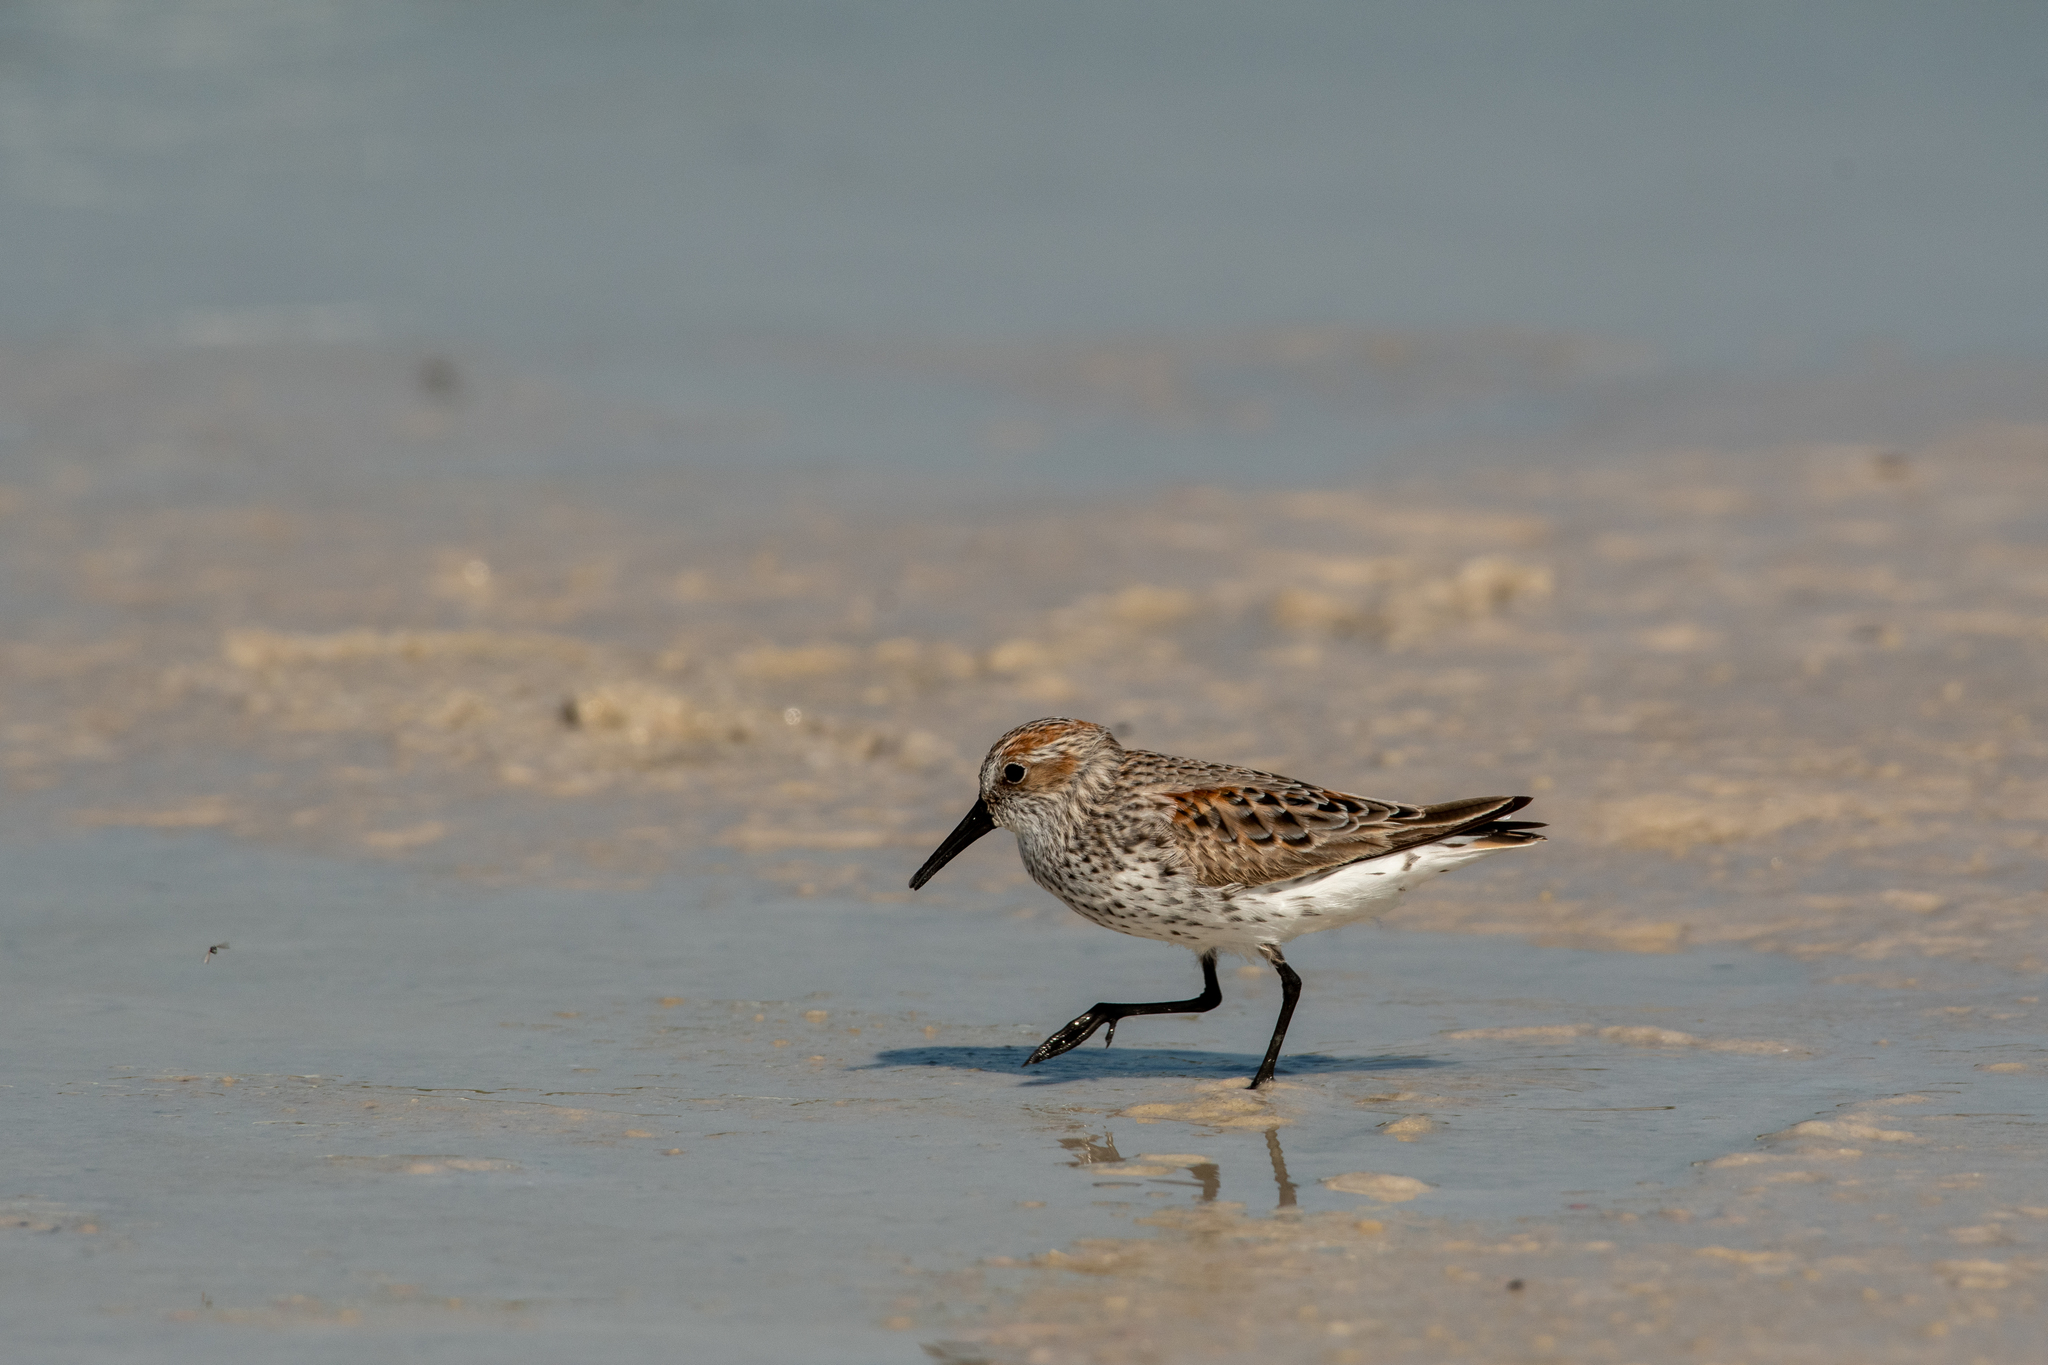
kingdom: Animalia
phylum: Chordata
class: Aves
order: Charadriiformes
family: Scolopacidae
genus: Calidris
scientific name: Calidris mauri
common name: Western sandpiper
